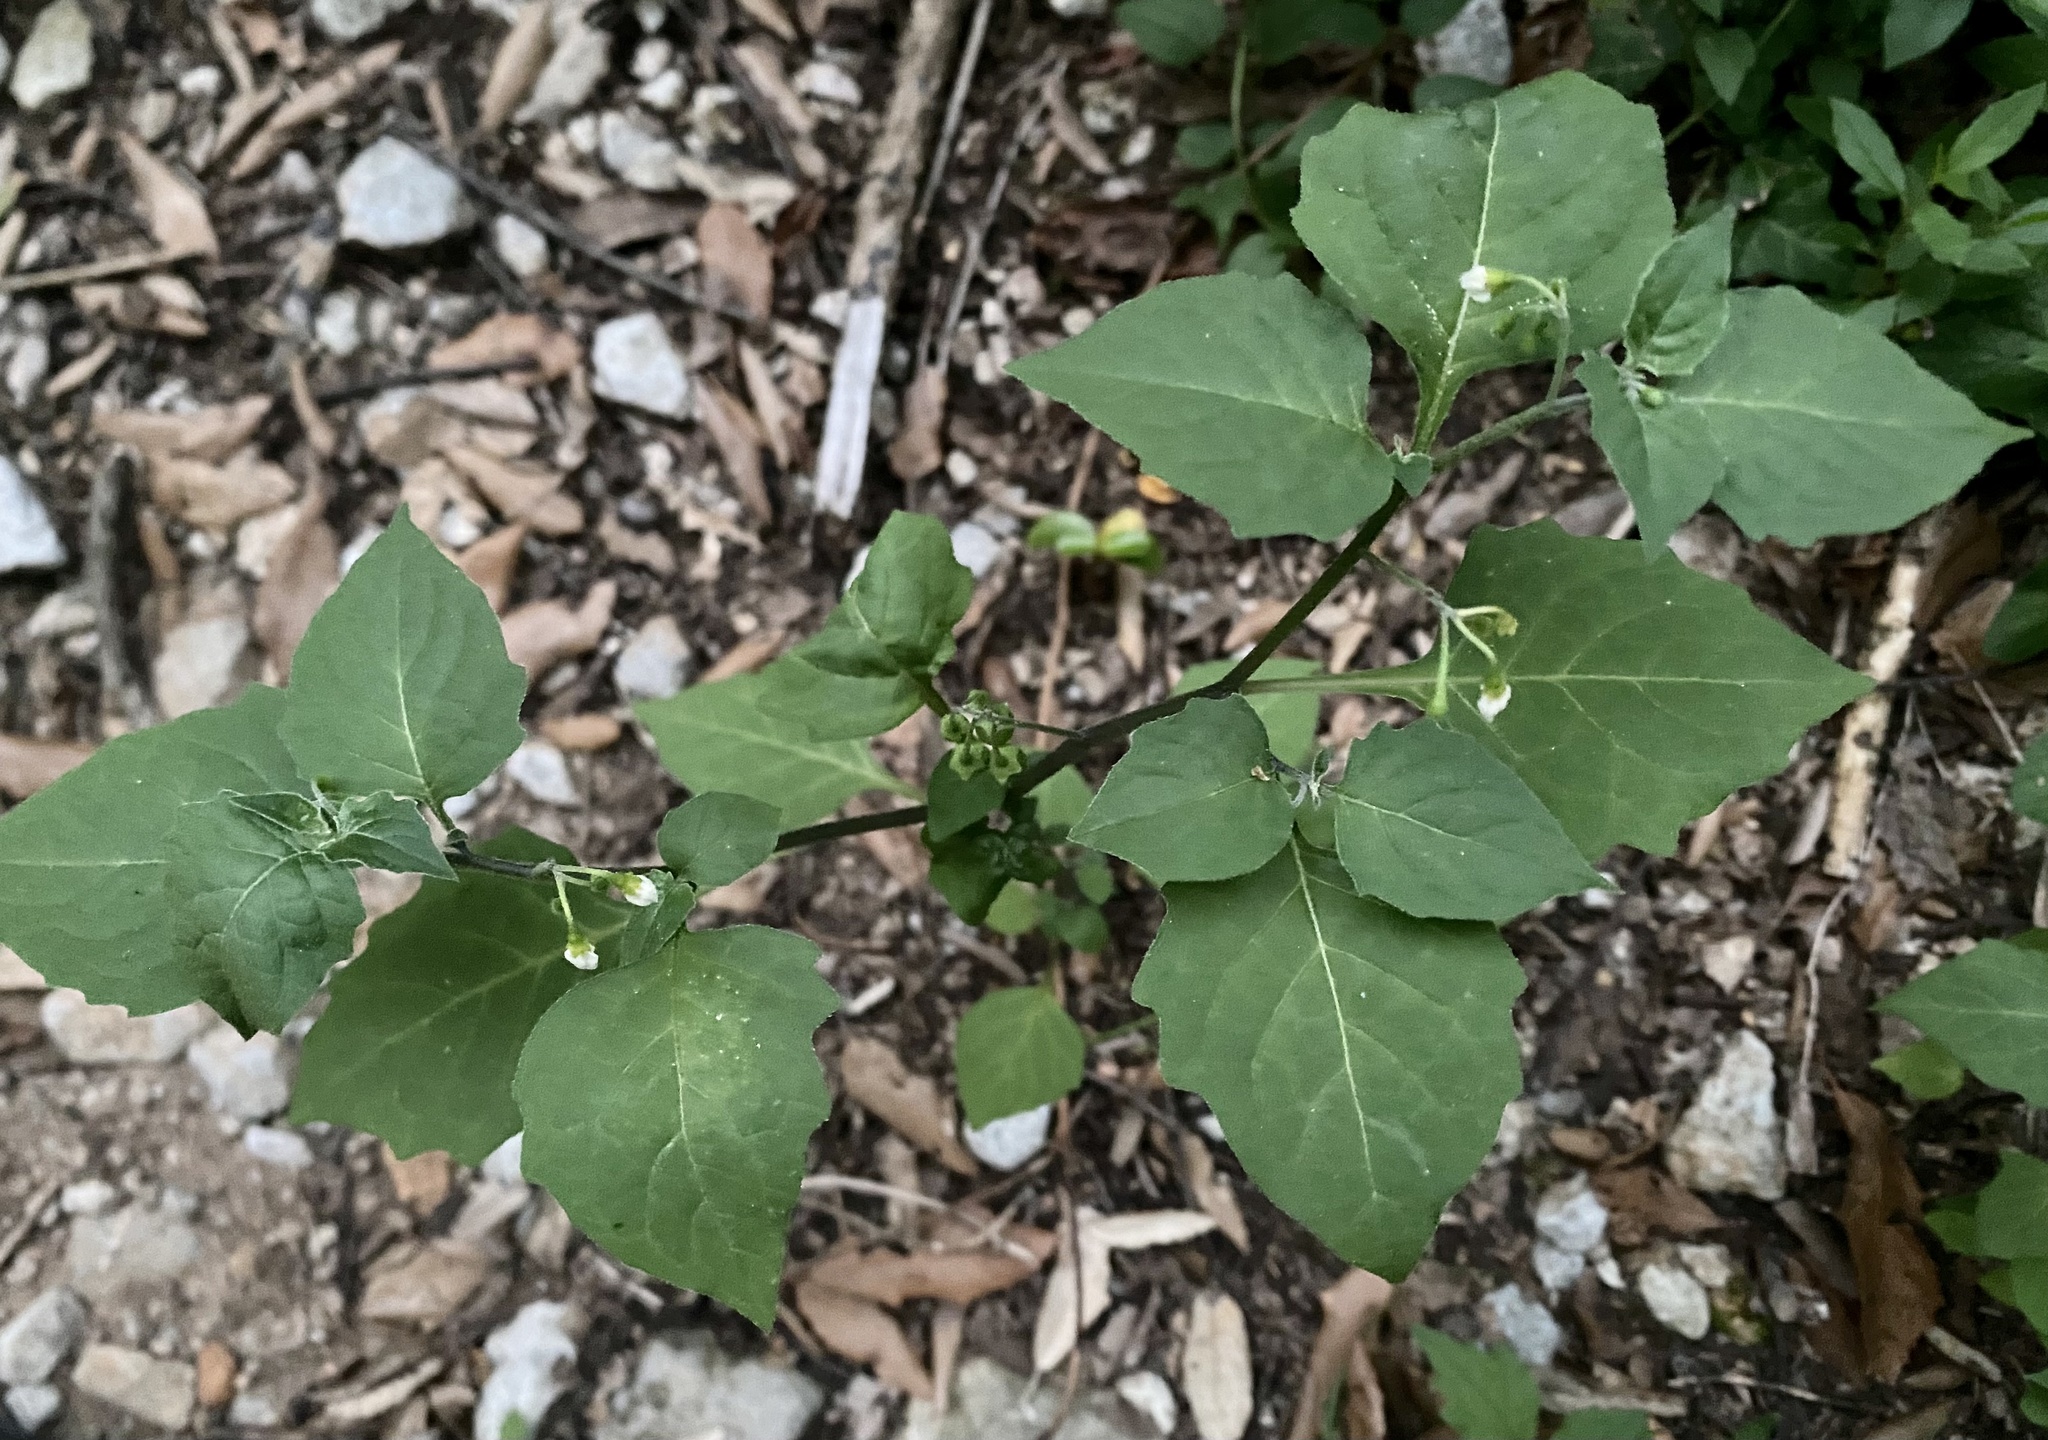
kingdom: Plantae
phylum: Tracheophyta
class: Magnoliopsida
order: Solanales
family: Solanaceae
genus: Solanum
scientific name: Solanum nigrum
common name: Black nightshade
